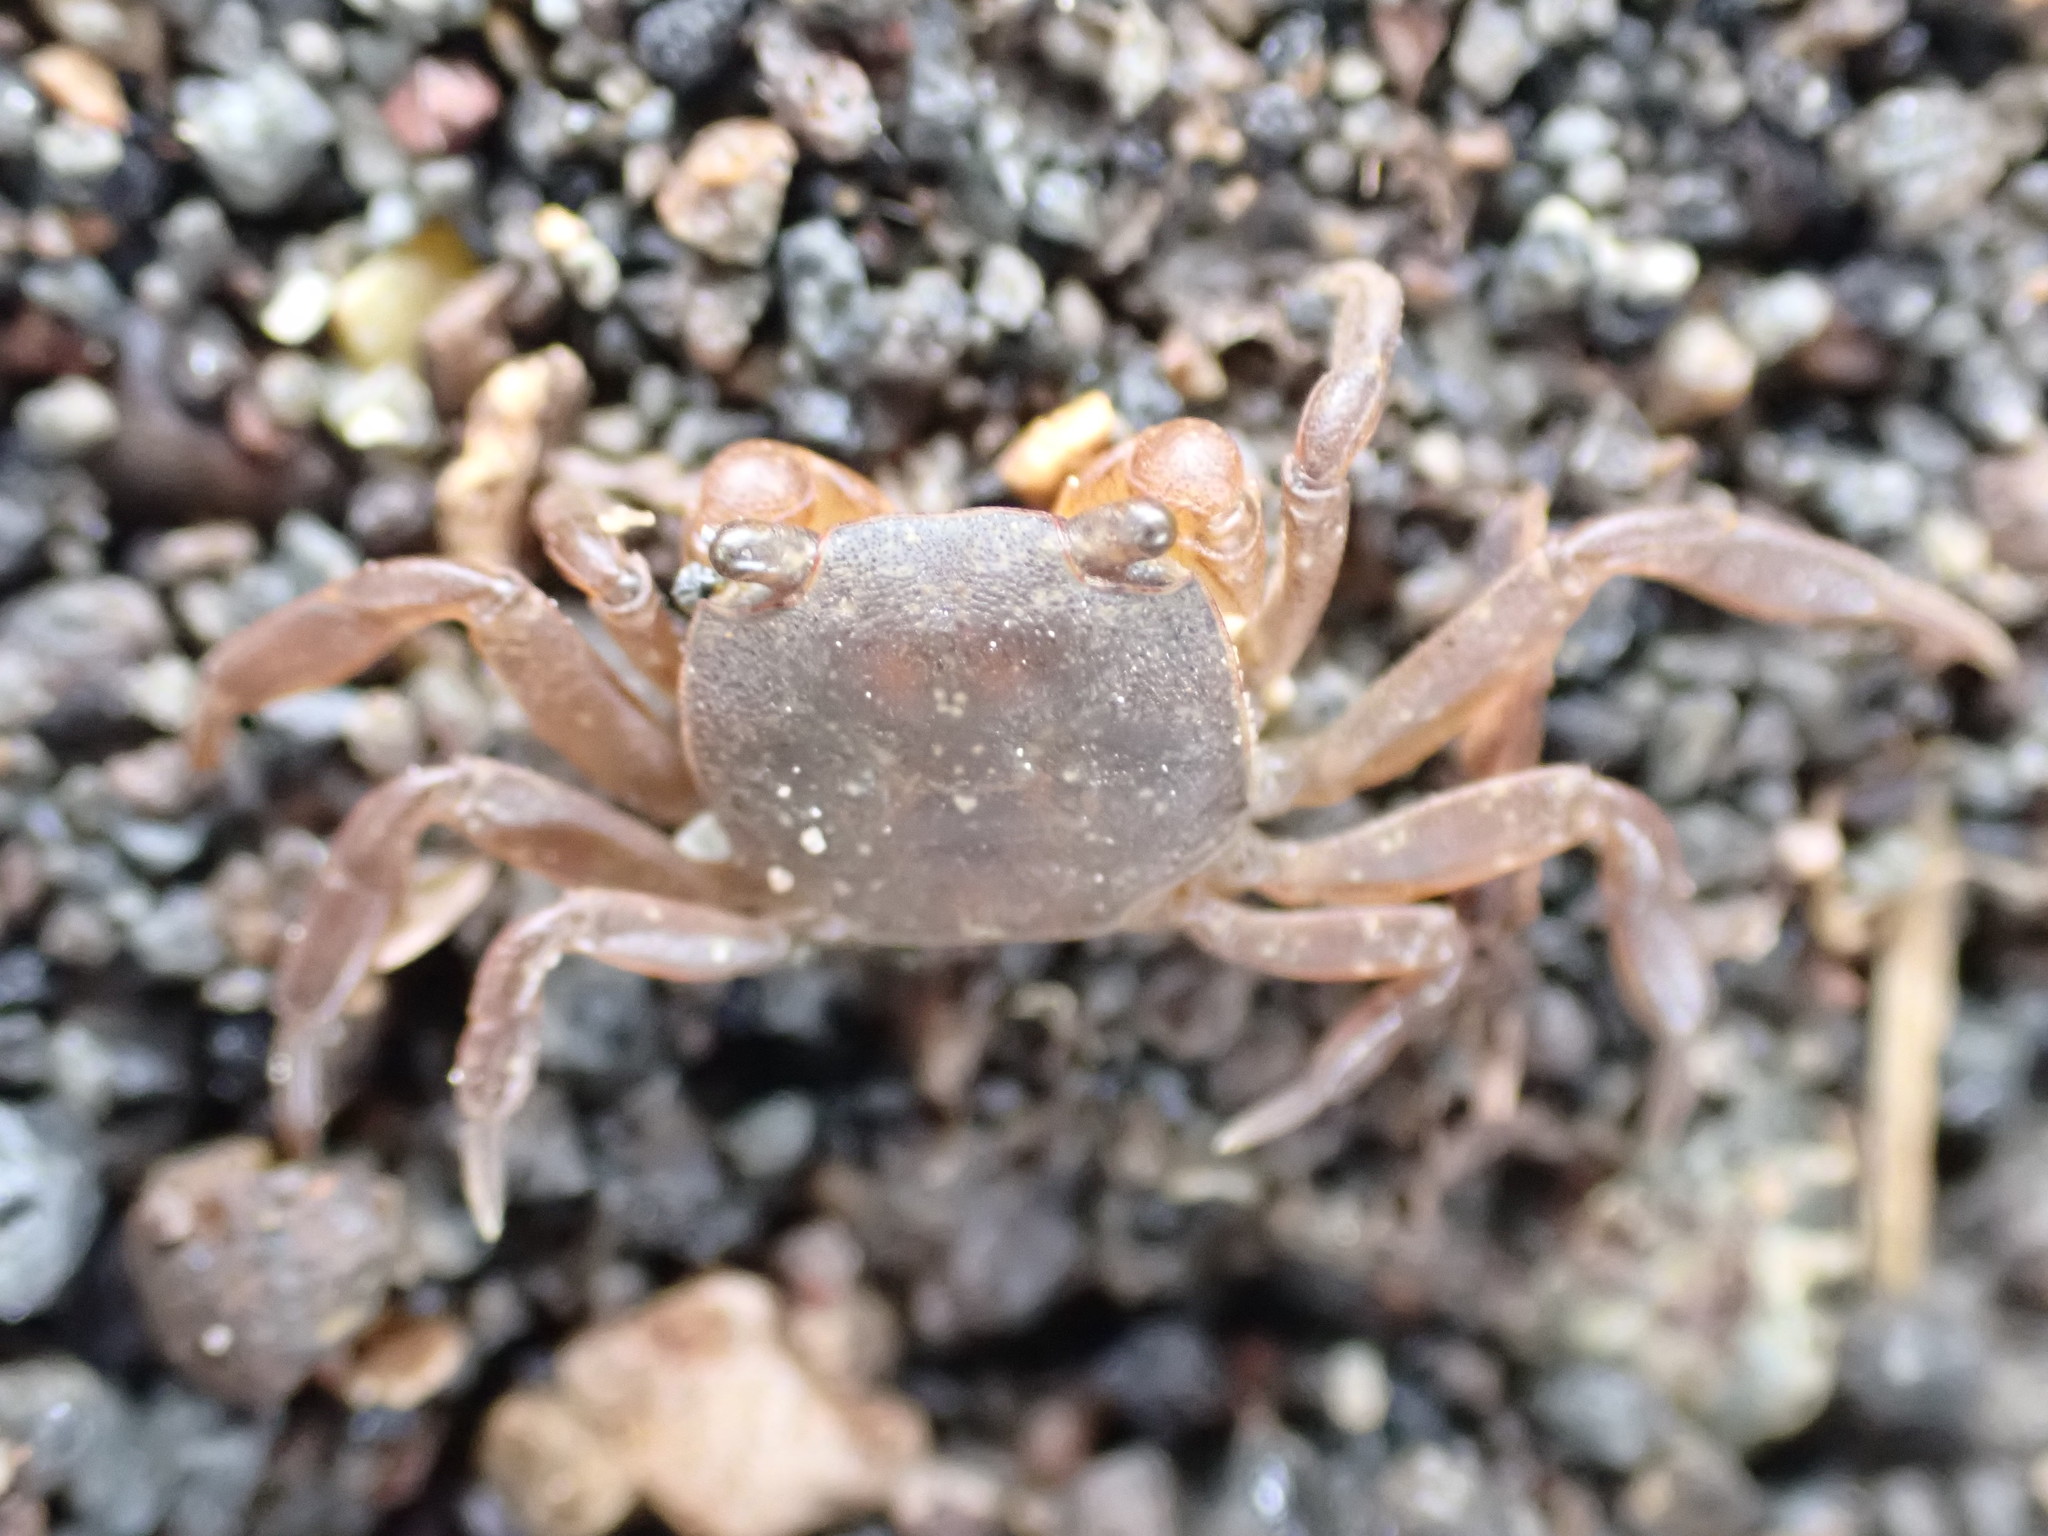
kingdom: Animalia
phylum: Arthropoda
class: Malacostraca
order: Decapoda
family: Varunidae
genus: Cyclograpsus
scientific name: Cyclograpsus lavauxi
